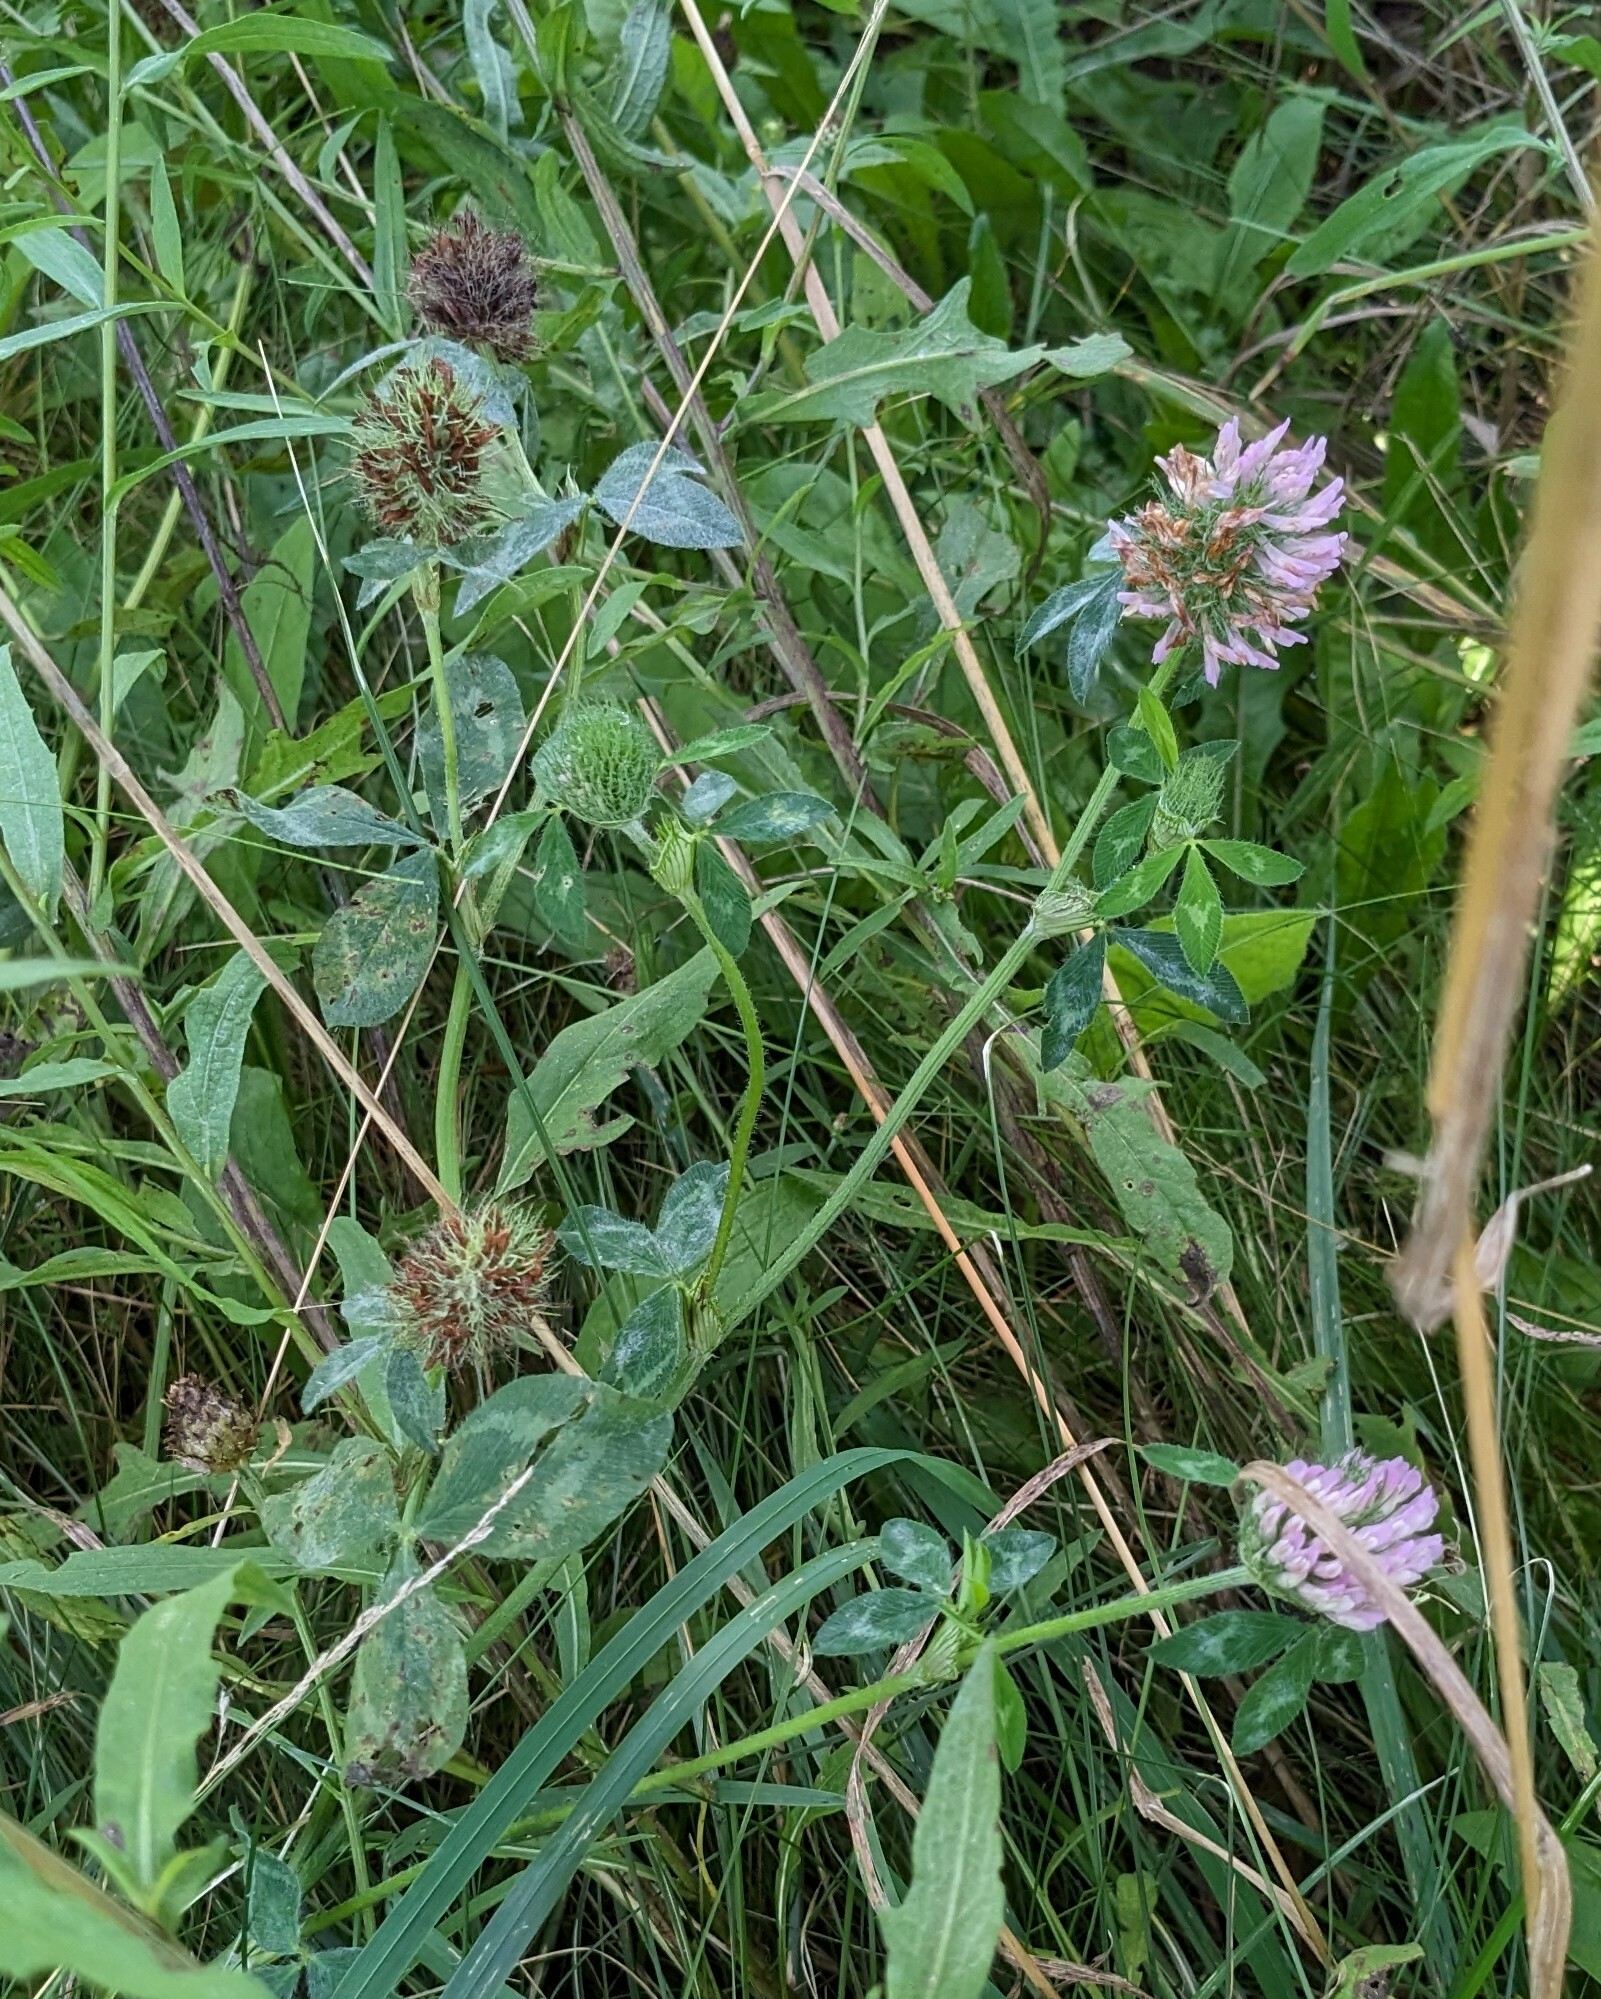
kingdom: Plantae
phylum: Tracheophyta
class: Magnoliopsida
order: Fabales
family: Fabaceae
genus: Trifolium
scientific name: Trifolium pratense
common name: Red clover
